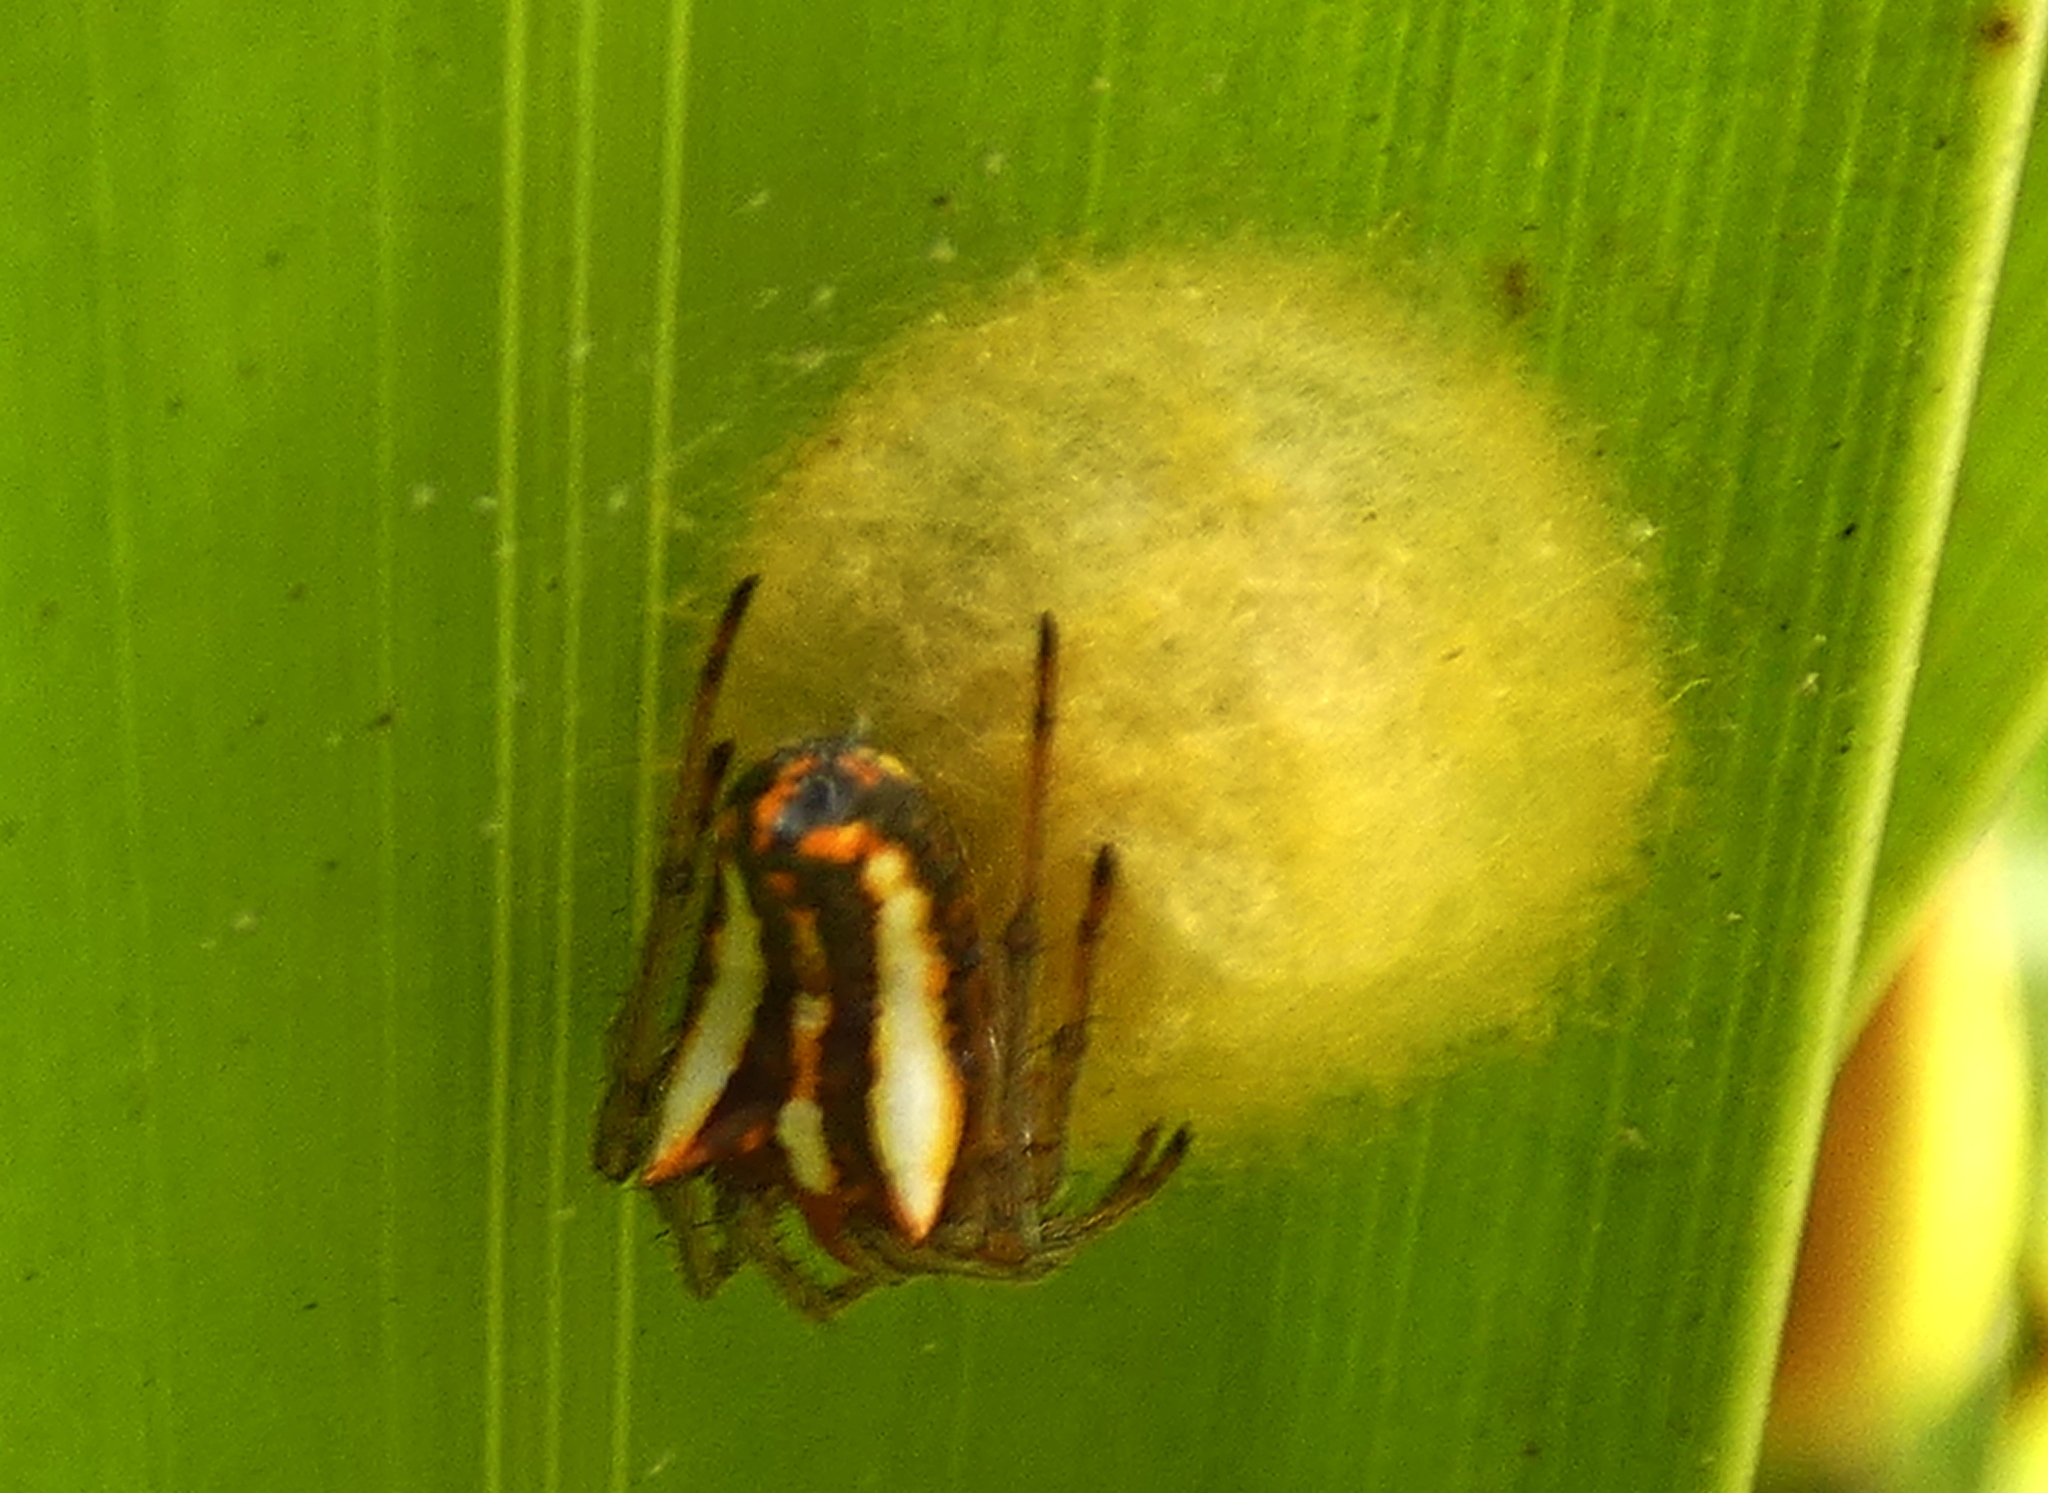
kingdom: Animalia
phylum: Arthropoda
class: Arachnida
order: Araneae
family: Araneidae
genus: Alpaida
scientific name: Alpaida bicornuta
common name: Orb weavers
